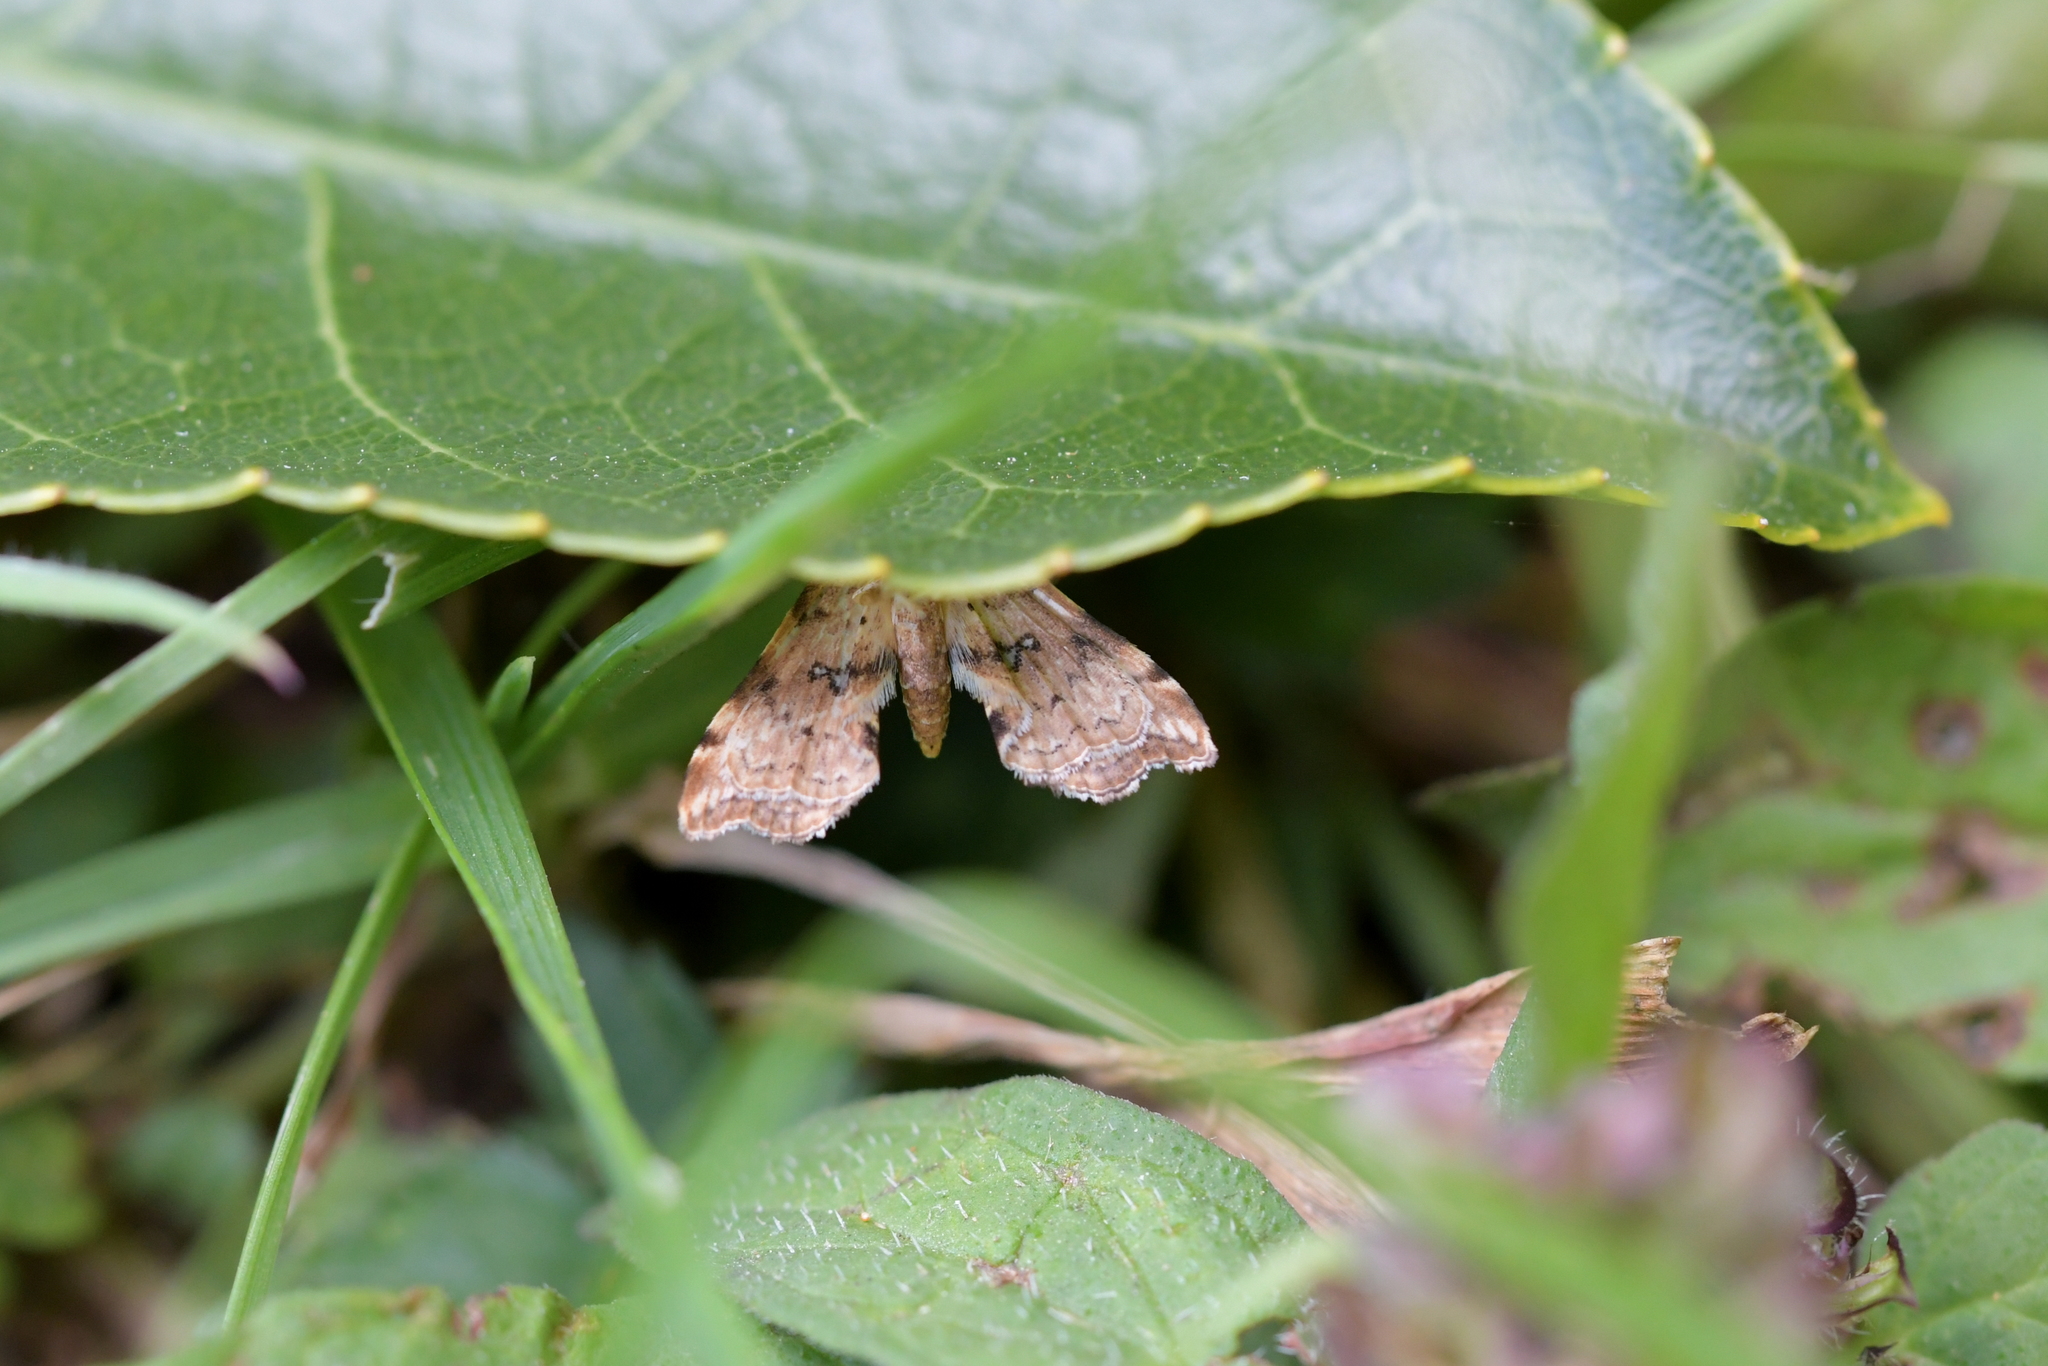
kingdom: Animalia
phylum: Arthropoda
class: Insecta
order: Lepidoptera
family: Pyralidae
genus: Musotima
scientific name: Musotima nitidalis
